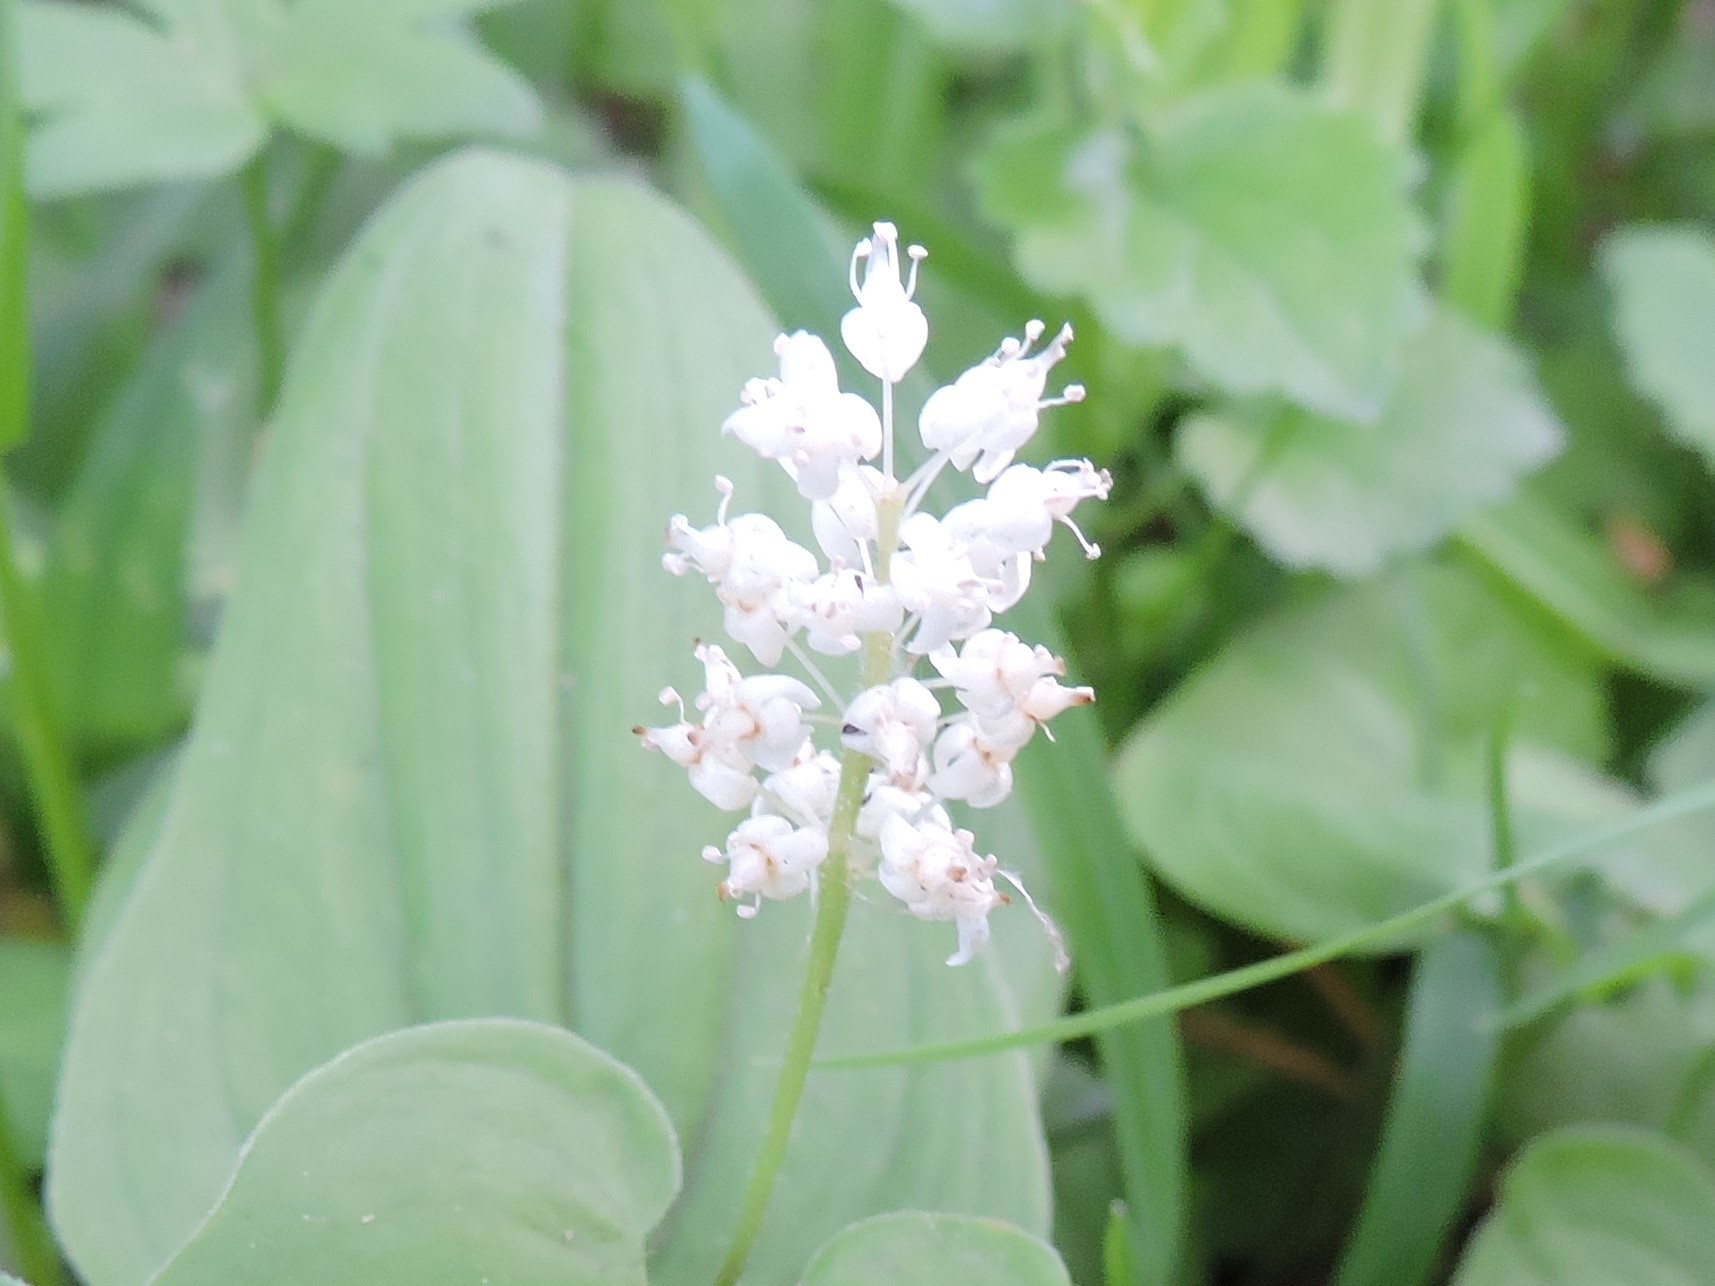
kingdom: Plantae
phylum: Tracheophyta
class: Liliopsida
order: Asparagales
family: Asparagaceae
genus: Maianthemum
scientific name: Maianthemum bifolium
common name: May lily
